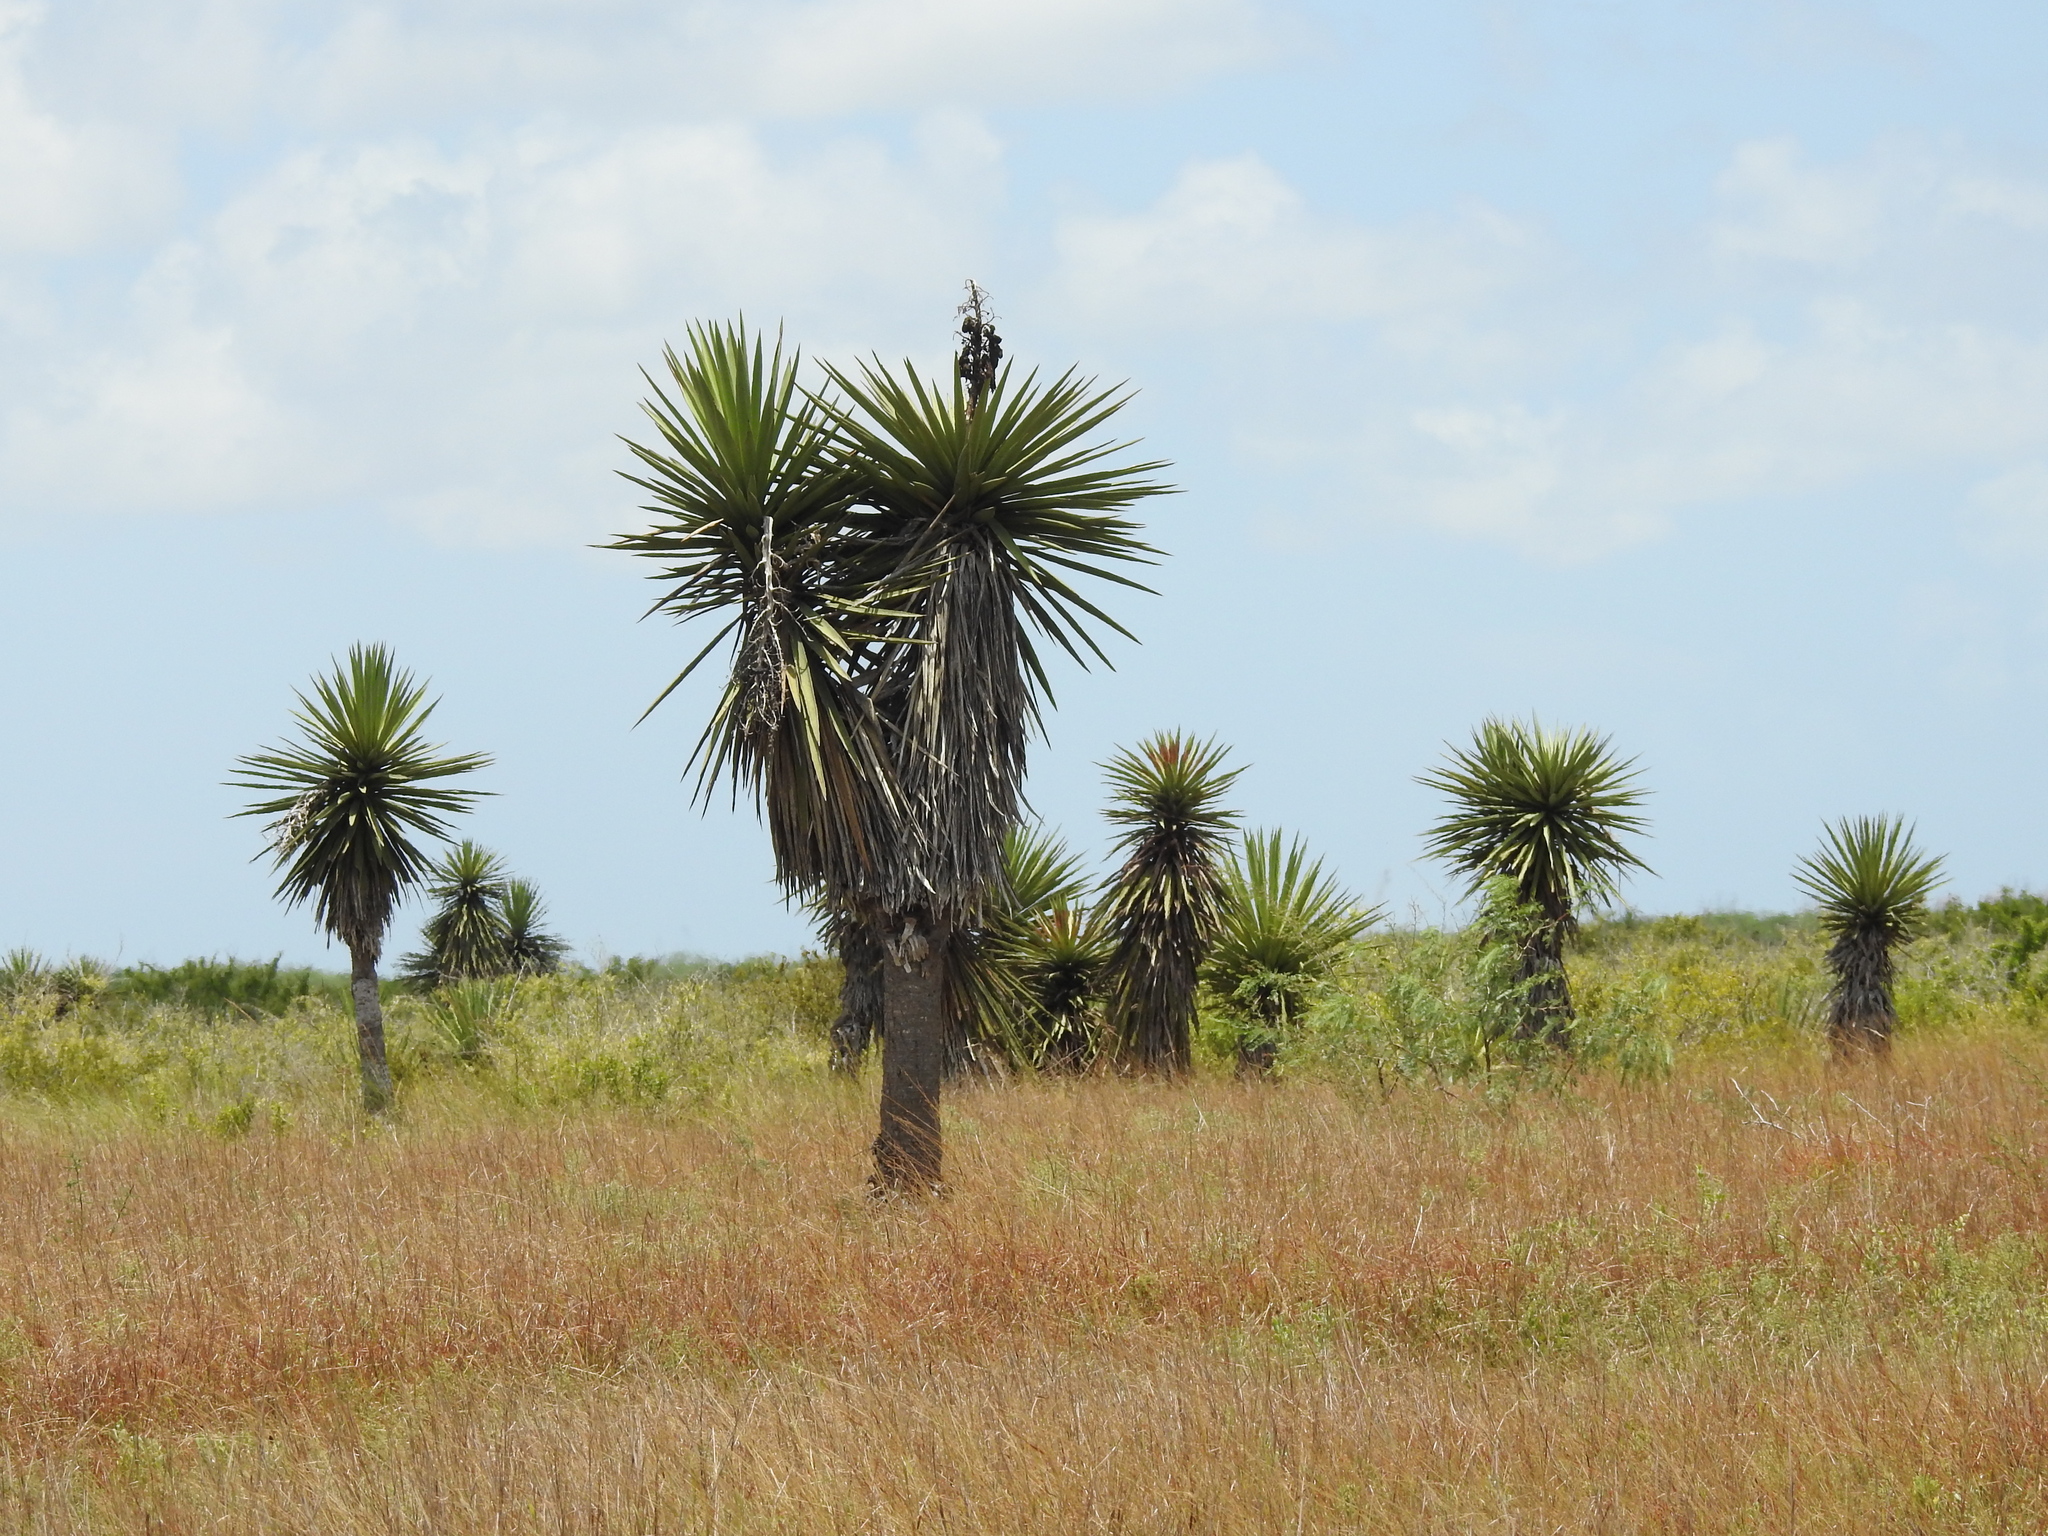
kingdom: Plantae
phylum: Tracheophyta
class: Liliopsida
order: Asparagales
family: Asparagaceae
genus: Yucca
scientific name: Yucca treculiana
